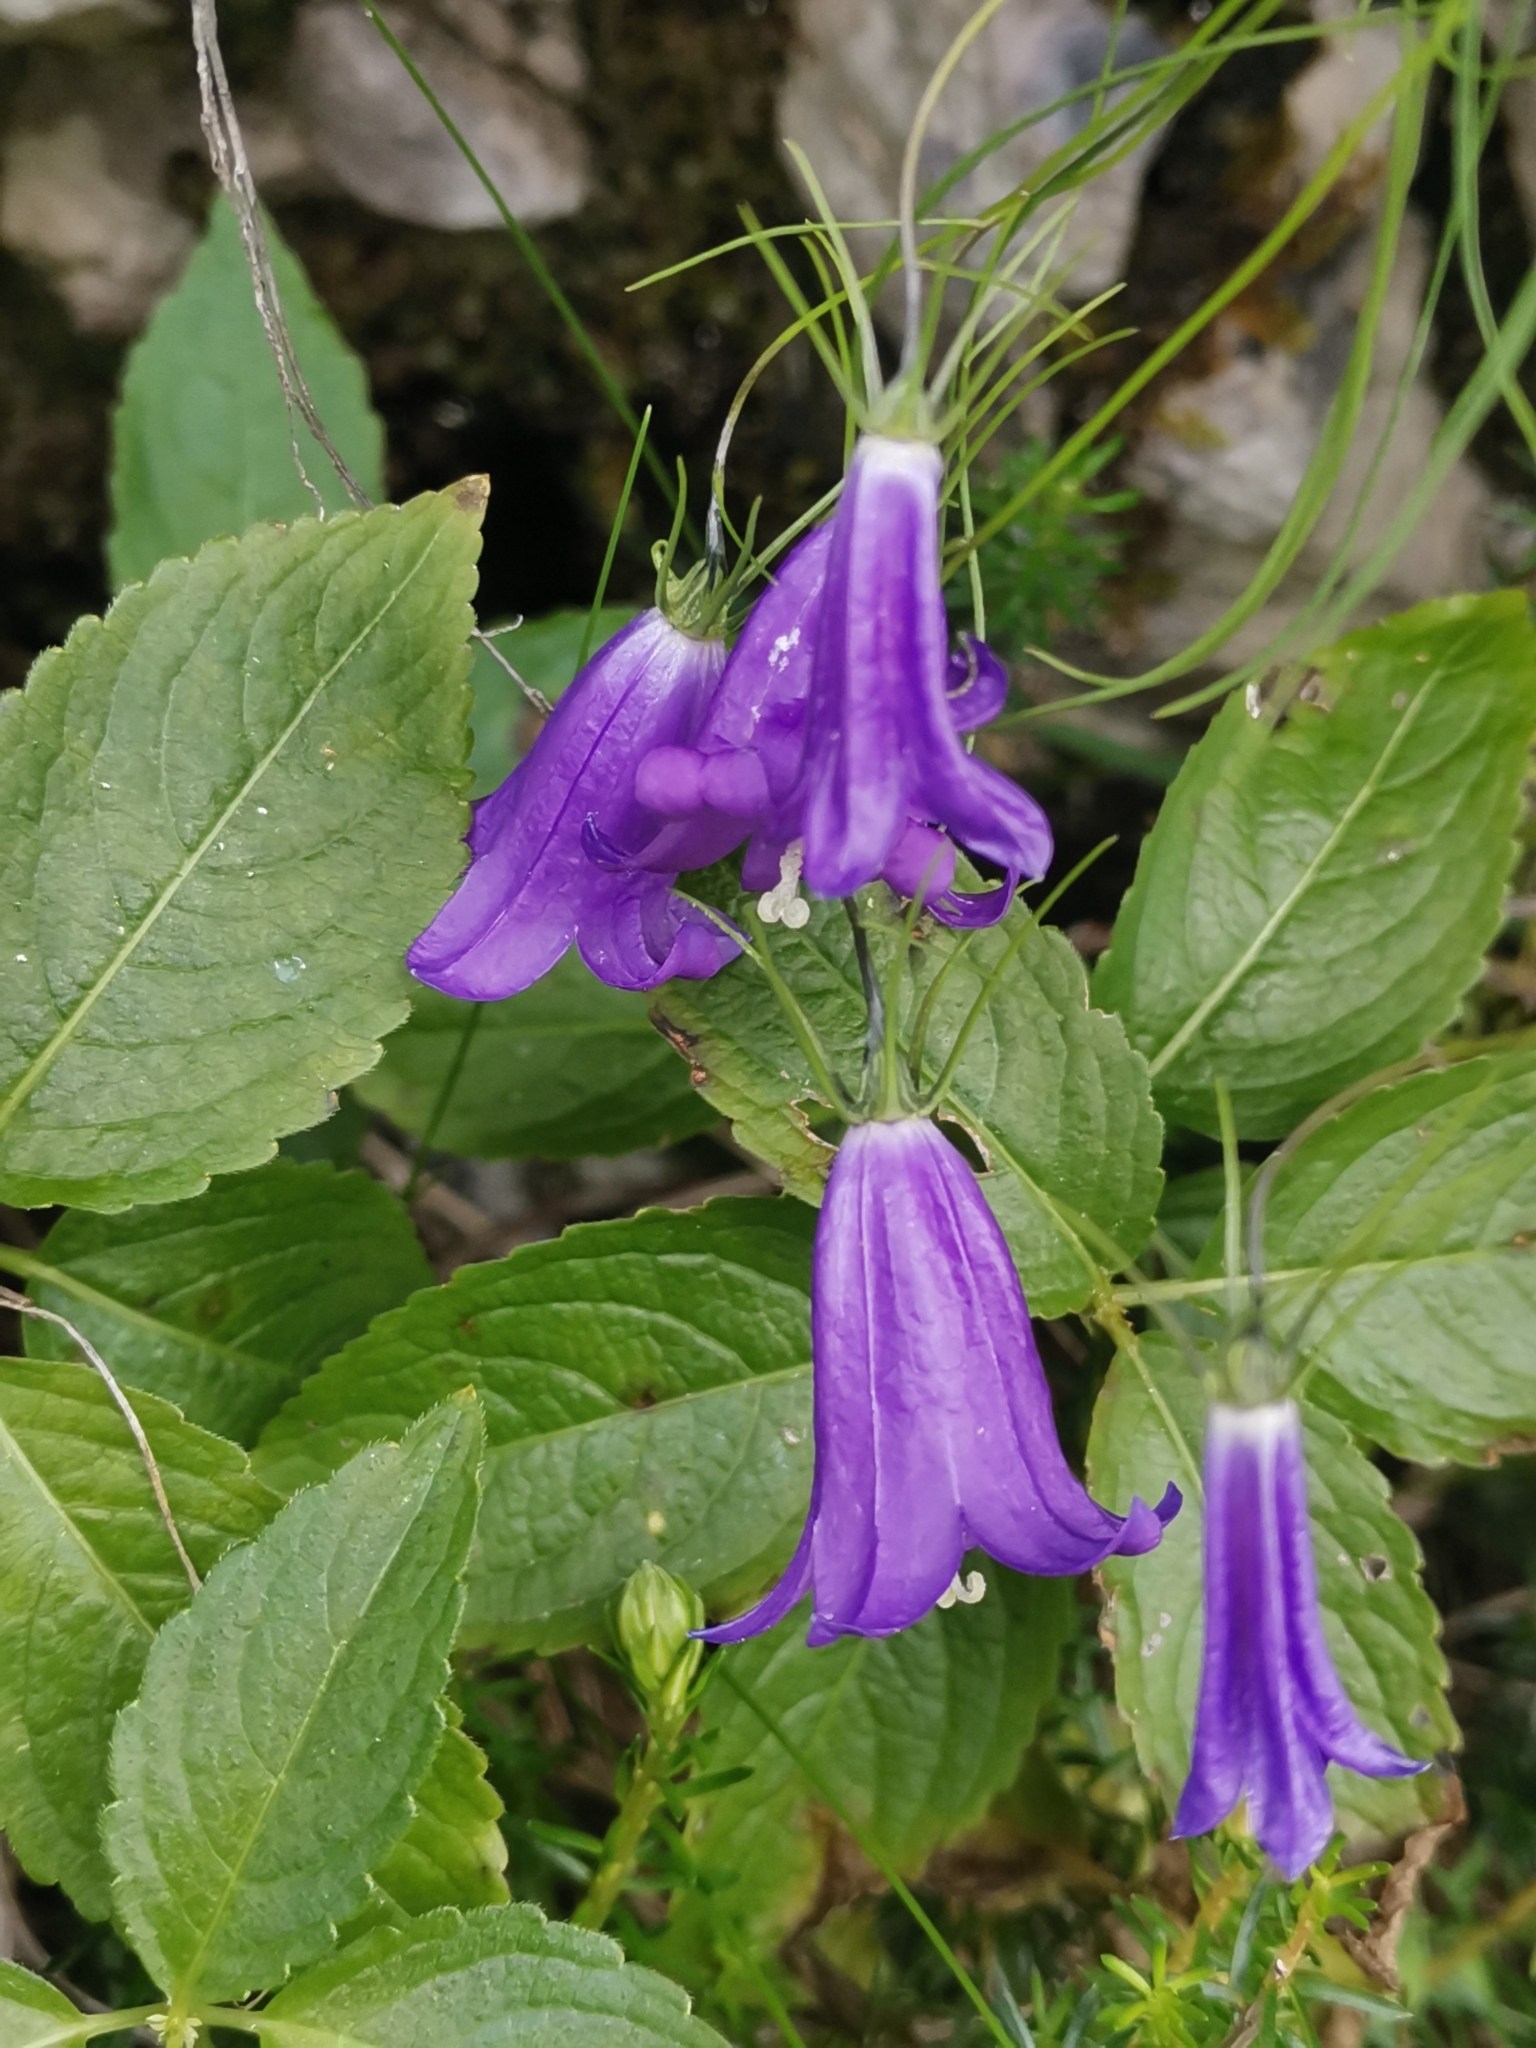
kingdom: Plantae
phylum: Tracheophyta
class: Magnoliopsida
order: Asterales
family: Campanulaceae
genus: Campanula
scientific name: Campanula carnica
